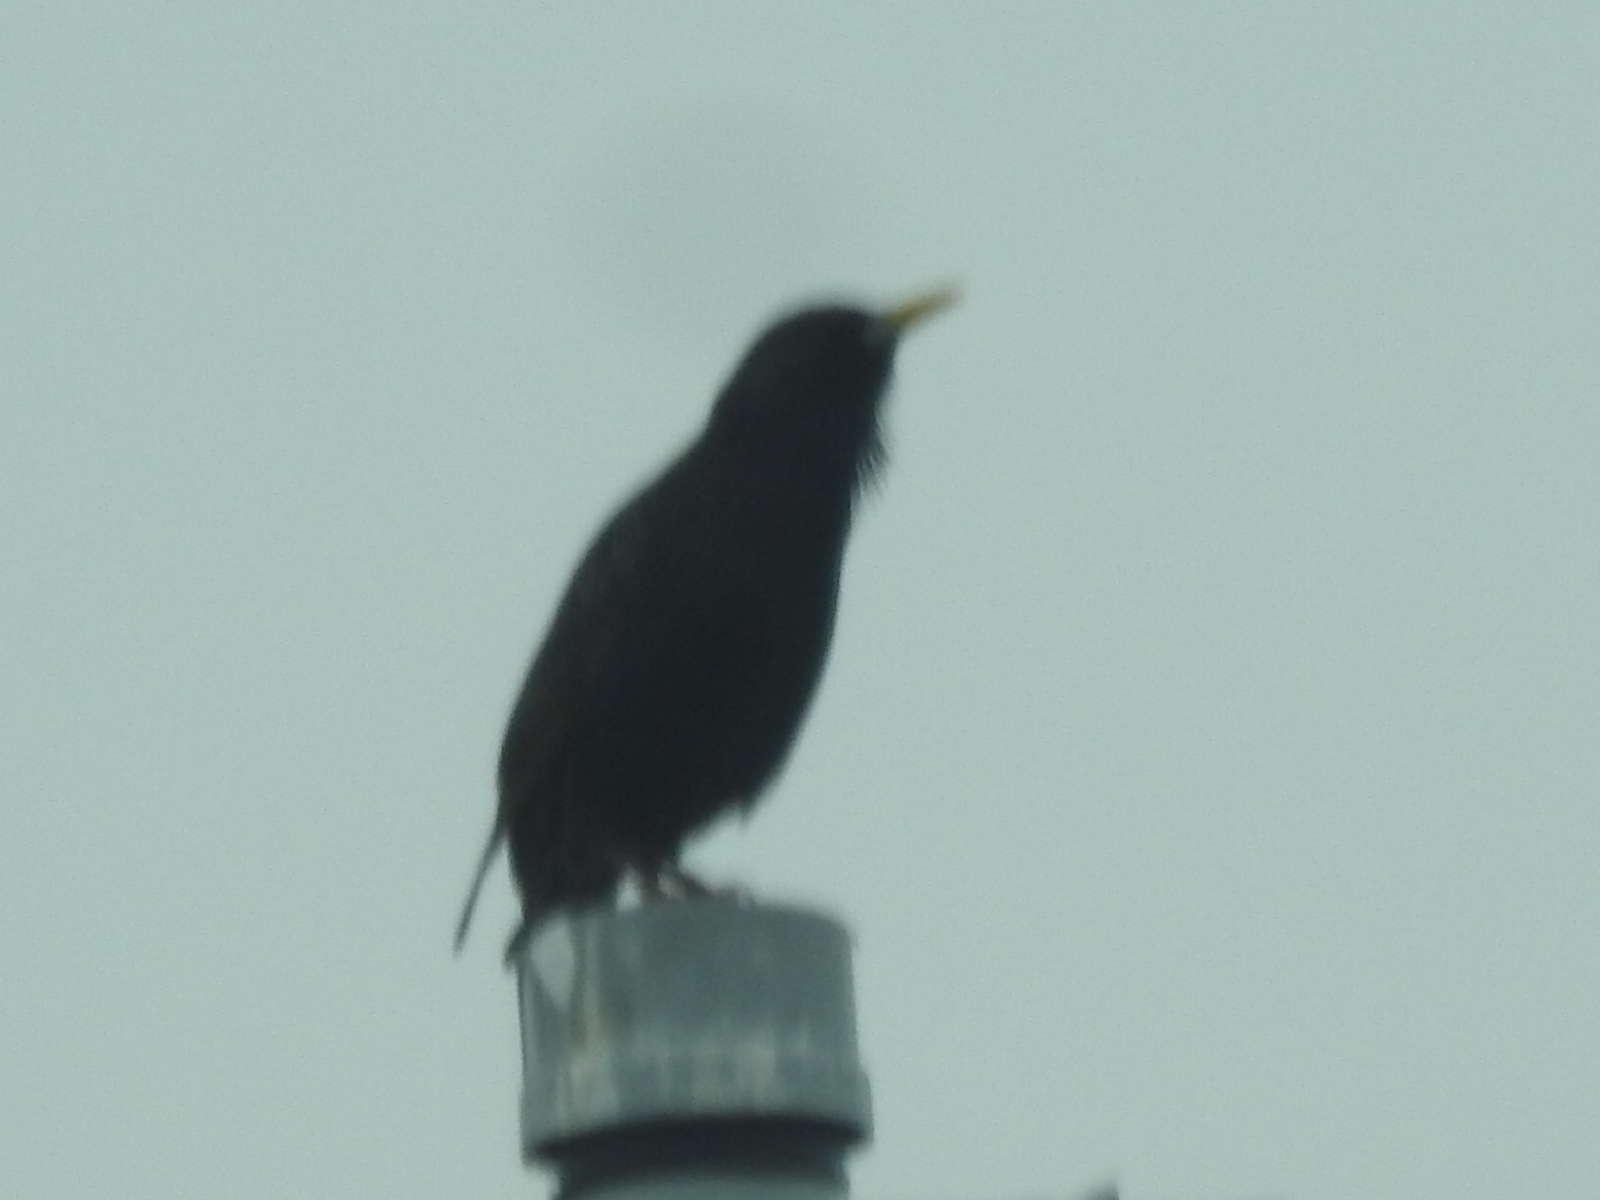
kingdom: Animalia
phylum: Chordata
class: Aves
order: Passeriformes
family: Sturnidae
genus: Sturnus
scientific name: Sturnus vulgaris
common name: Common starling
